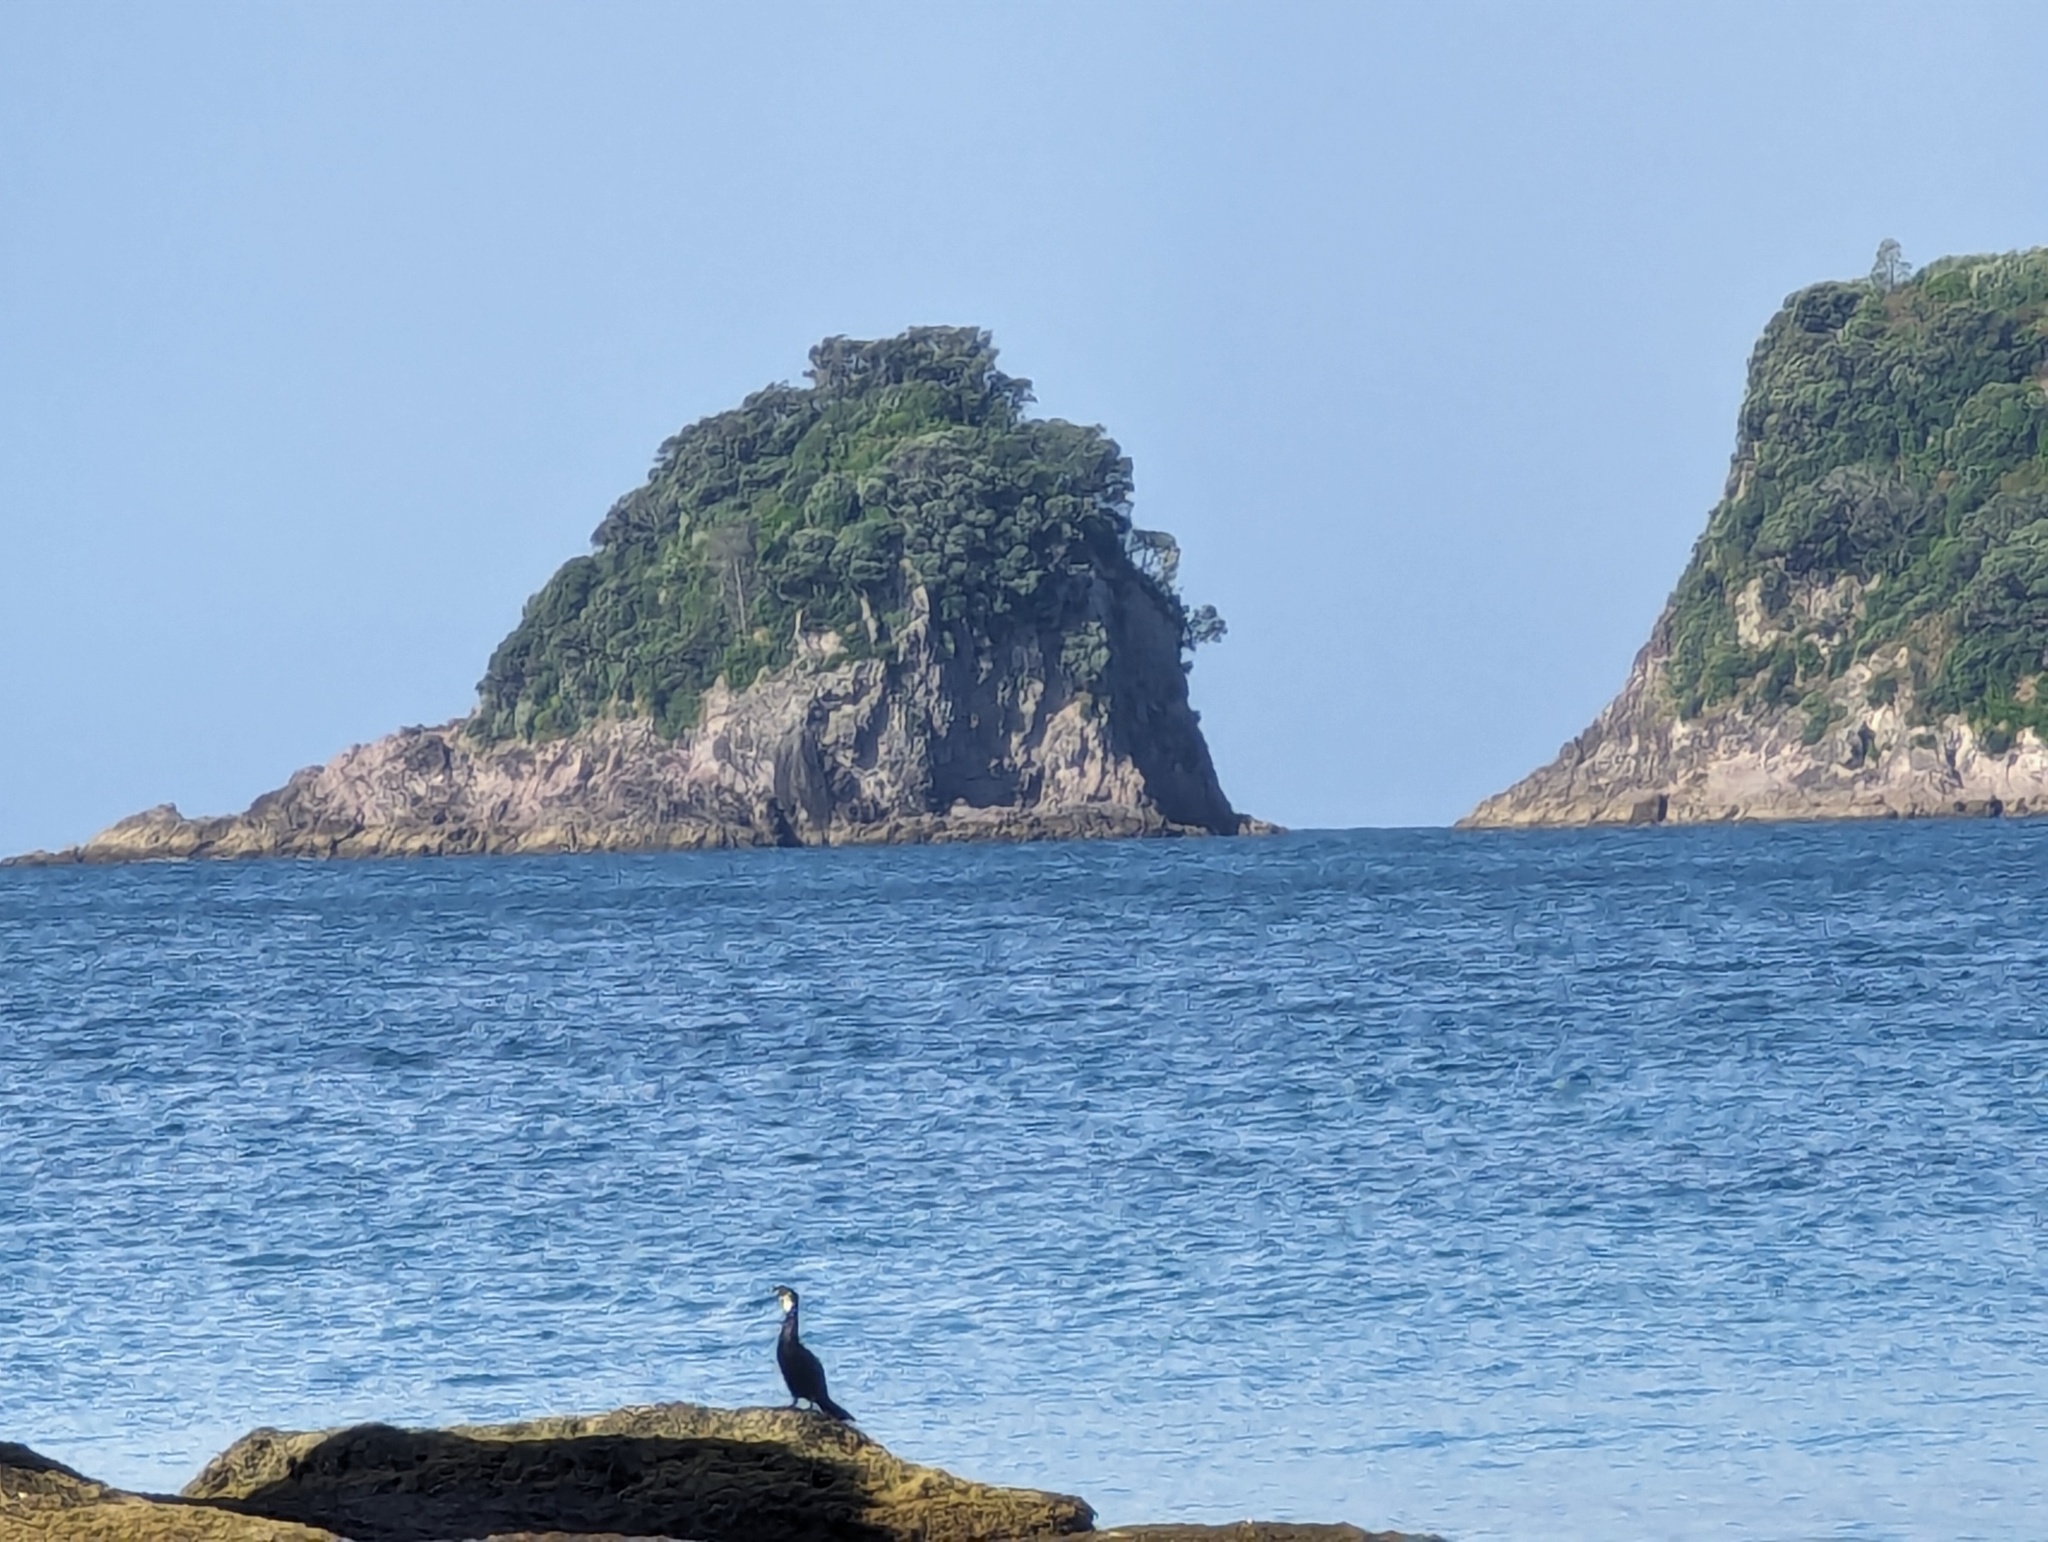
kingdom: Animalia
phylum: Chordata
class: Aves
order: Suliformes
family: Phalacrocoracidae
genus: Microcarbo
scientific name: Microcarbo melanoleucos
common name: Little pied cormorant
